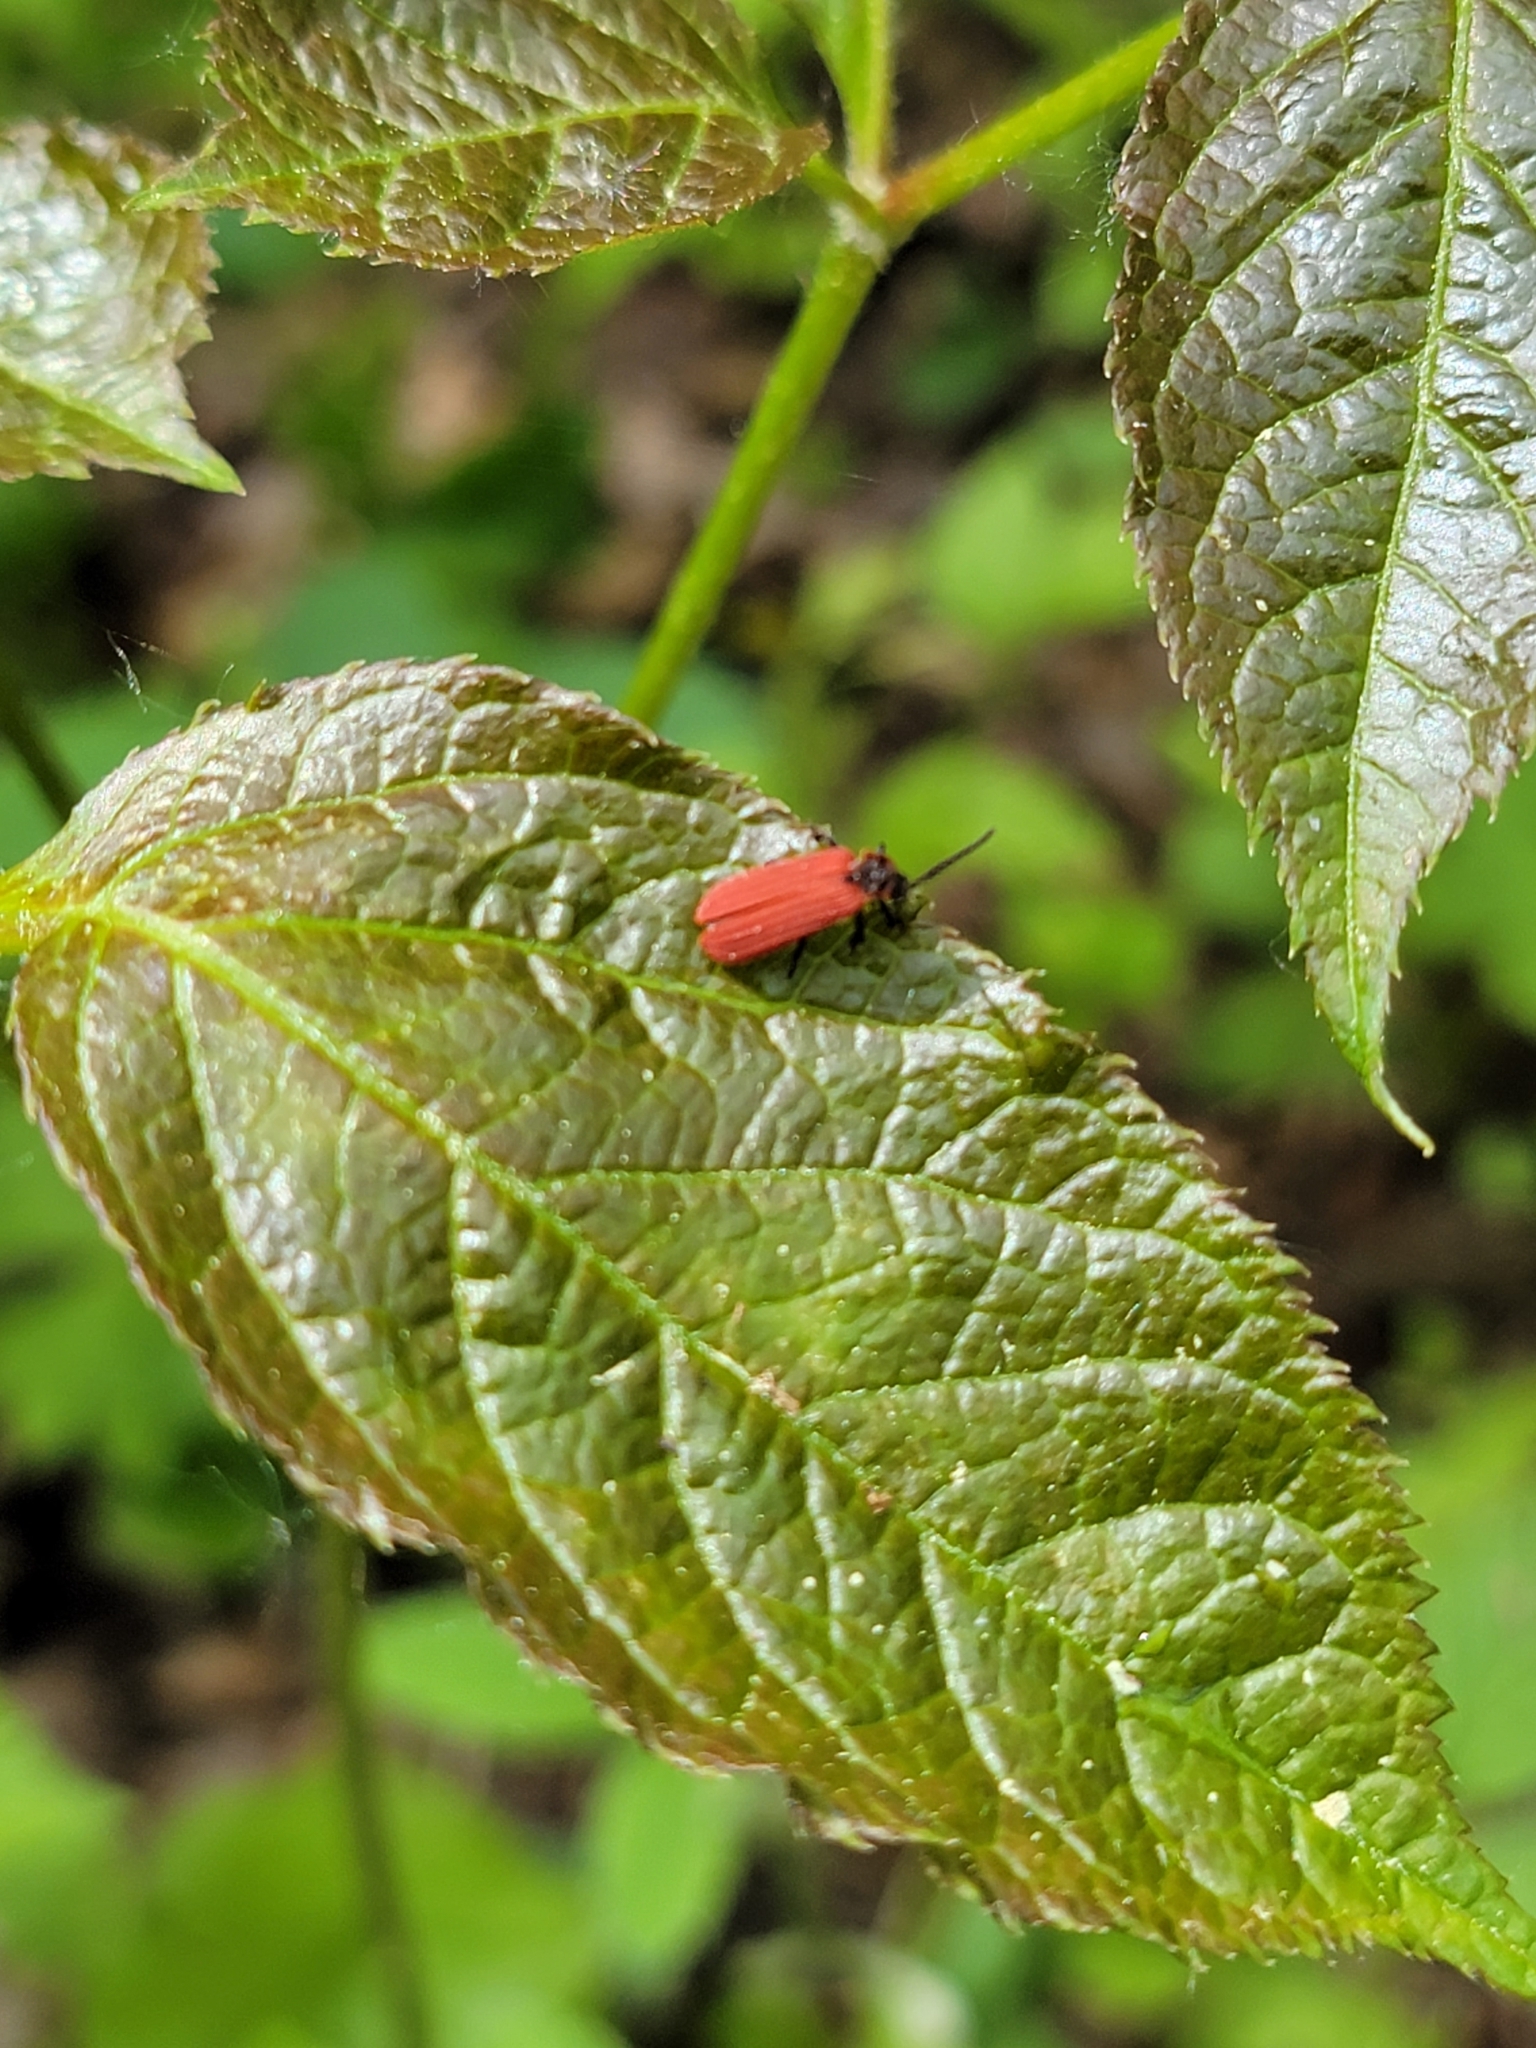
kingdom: Animalia
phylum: Arthropoda
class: Insecta
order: Coleoptera
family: Lycidae
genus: Dictyoptera
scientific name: Dictyoptera aurora
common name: Golden net-winged beetle
